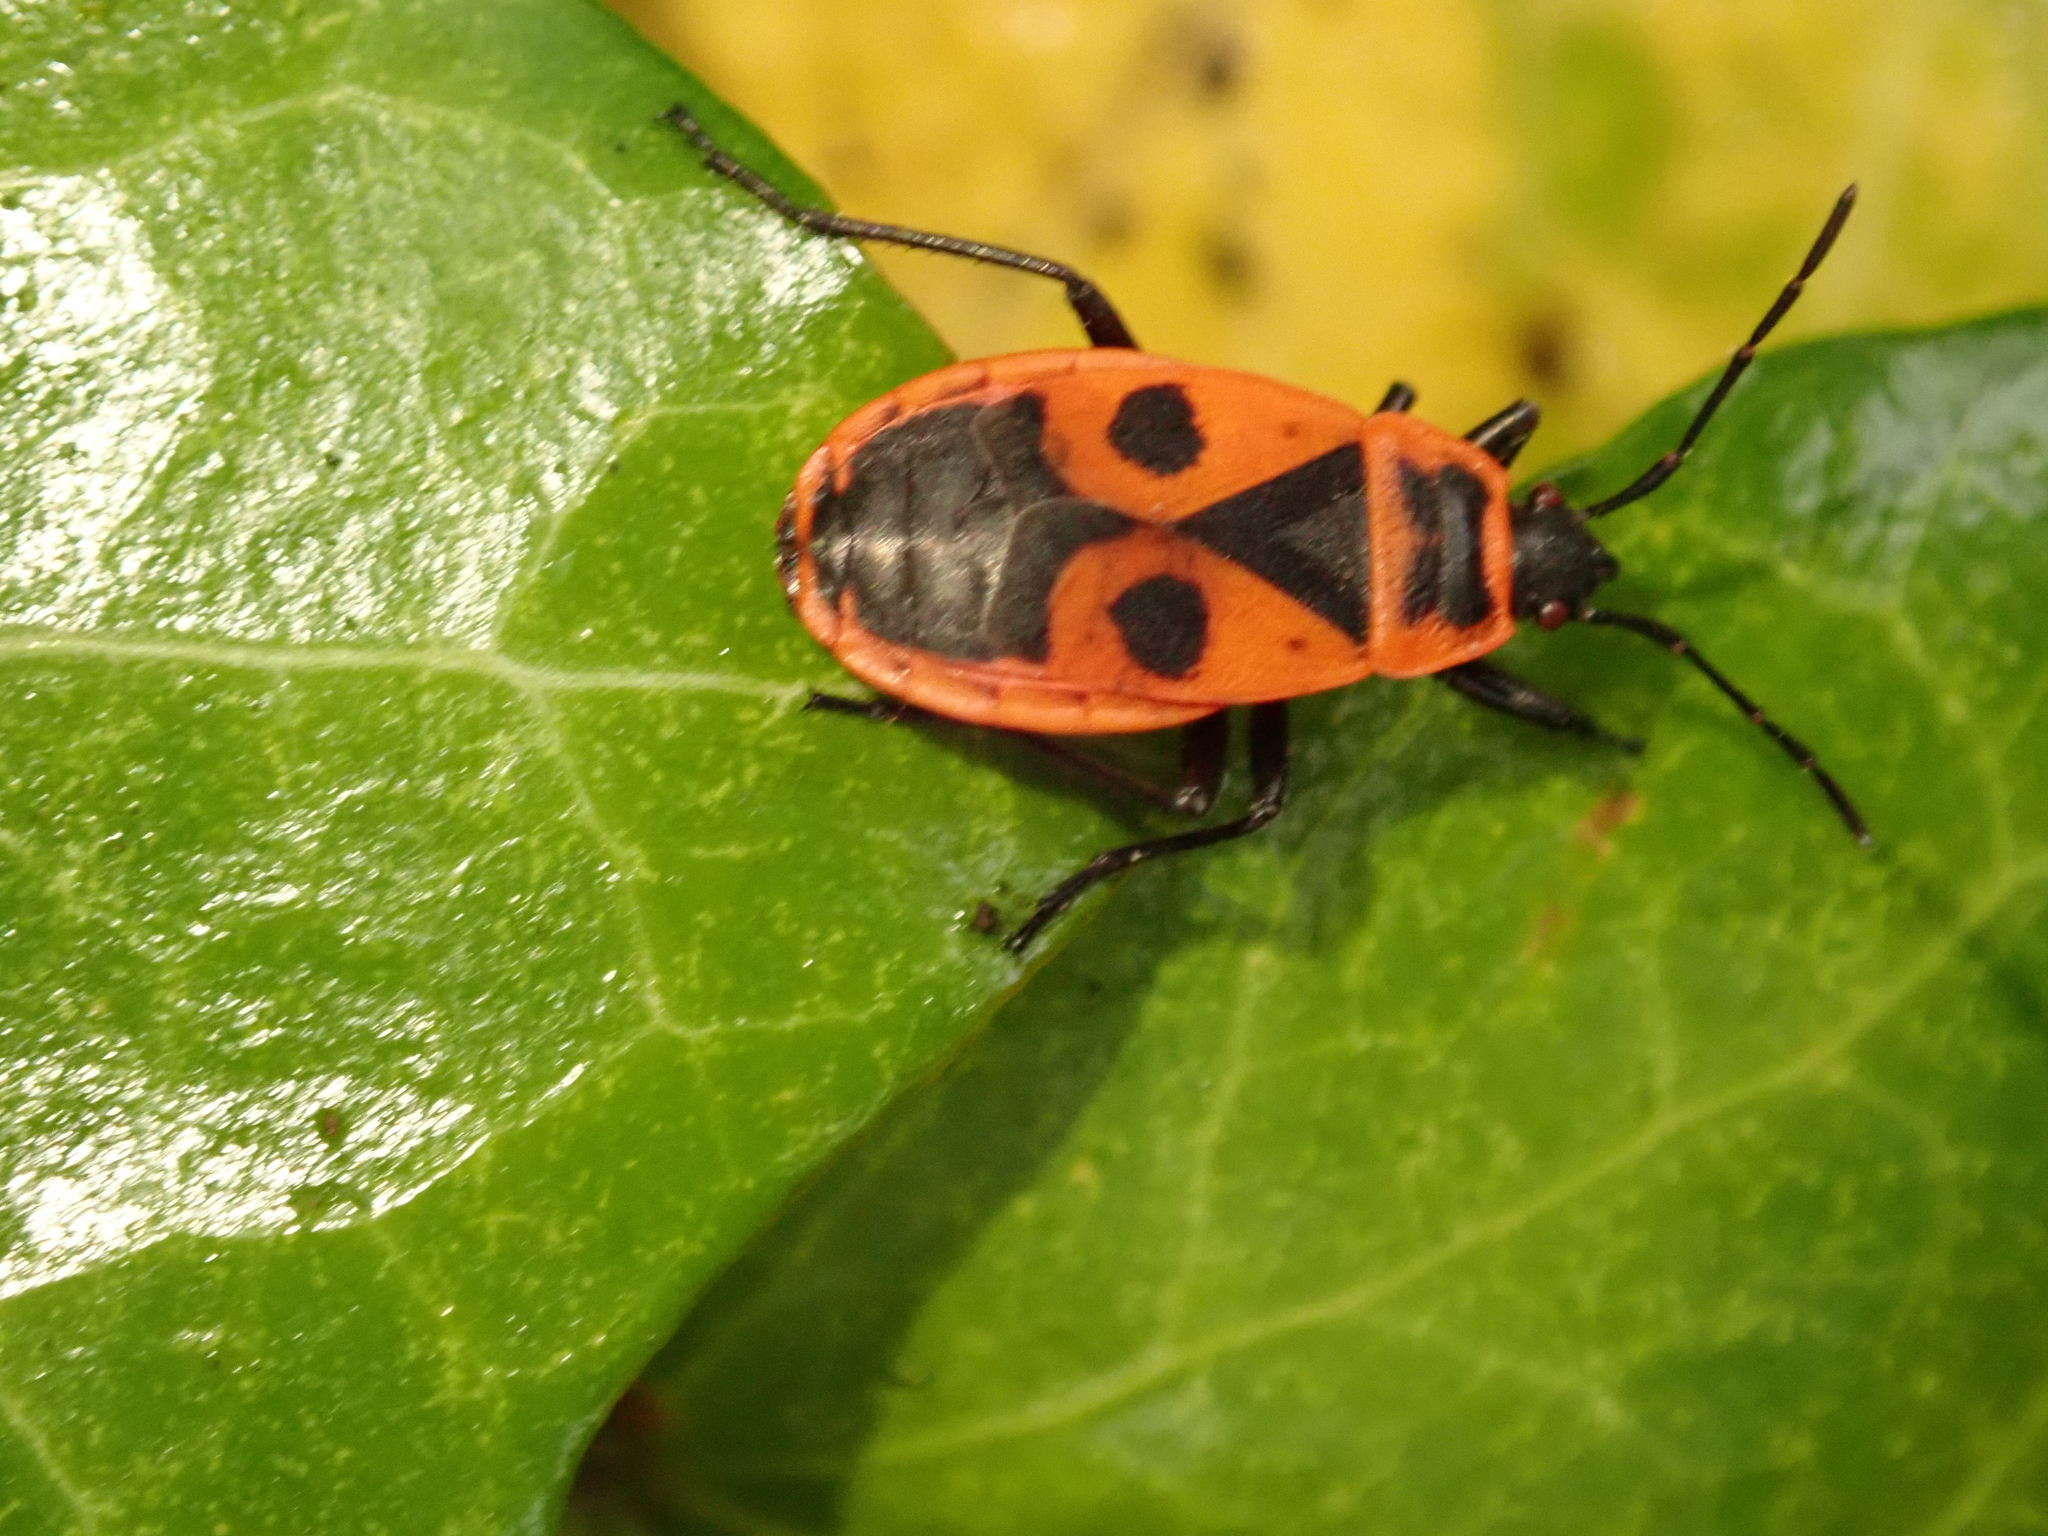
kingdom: Animalia
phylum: Arthropoda
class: Insecta
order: Hemiptera
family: Pyrrhocoridae
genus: Pyrrhocoris
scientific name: Pyrrhocoris apterus
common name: Firebug
